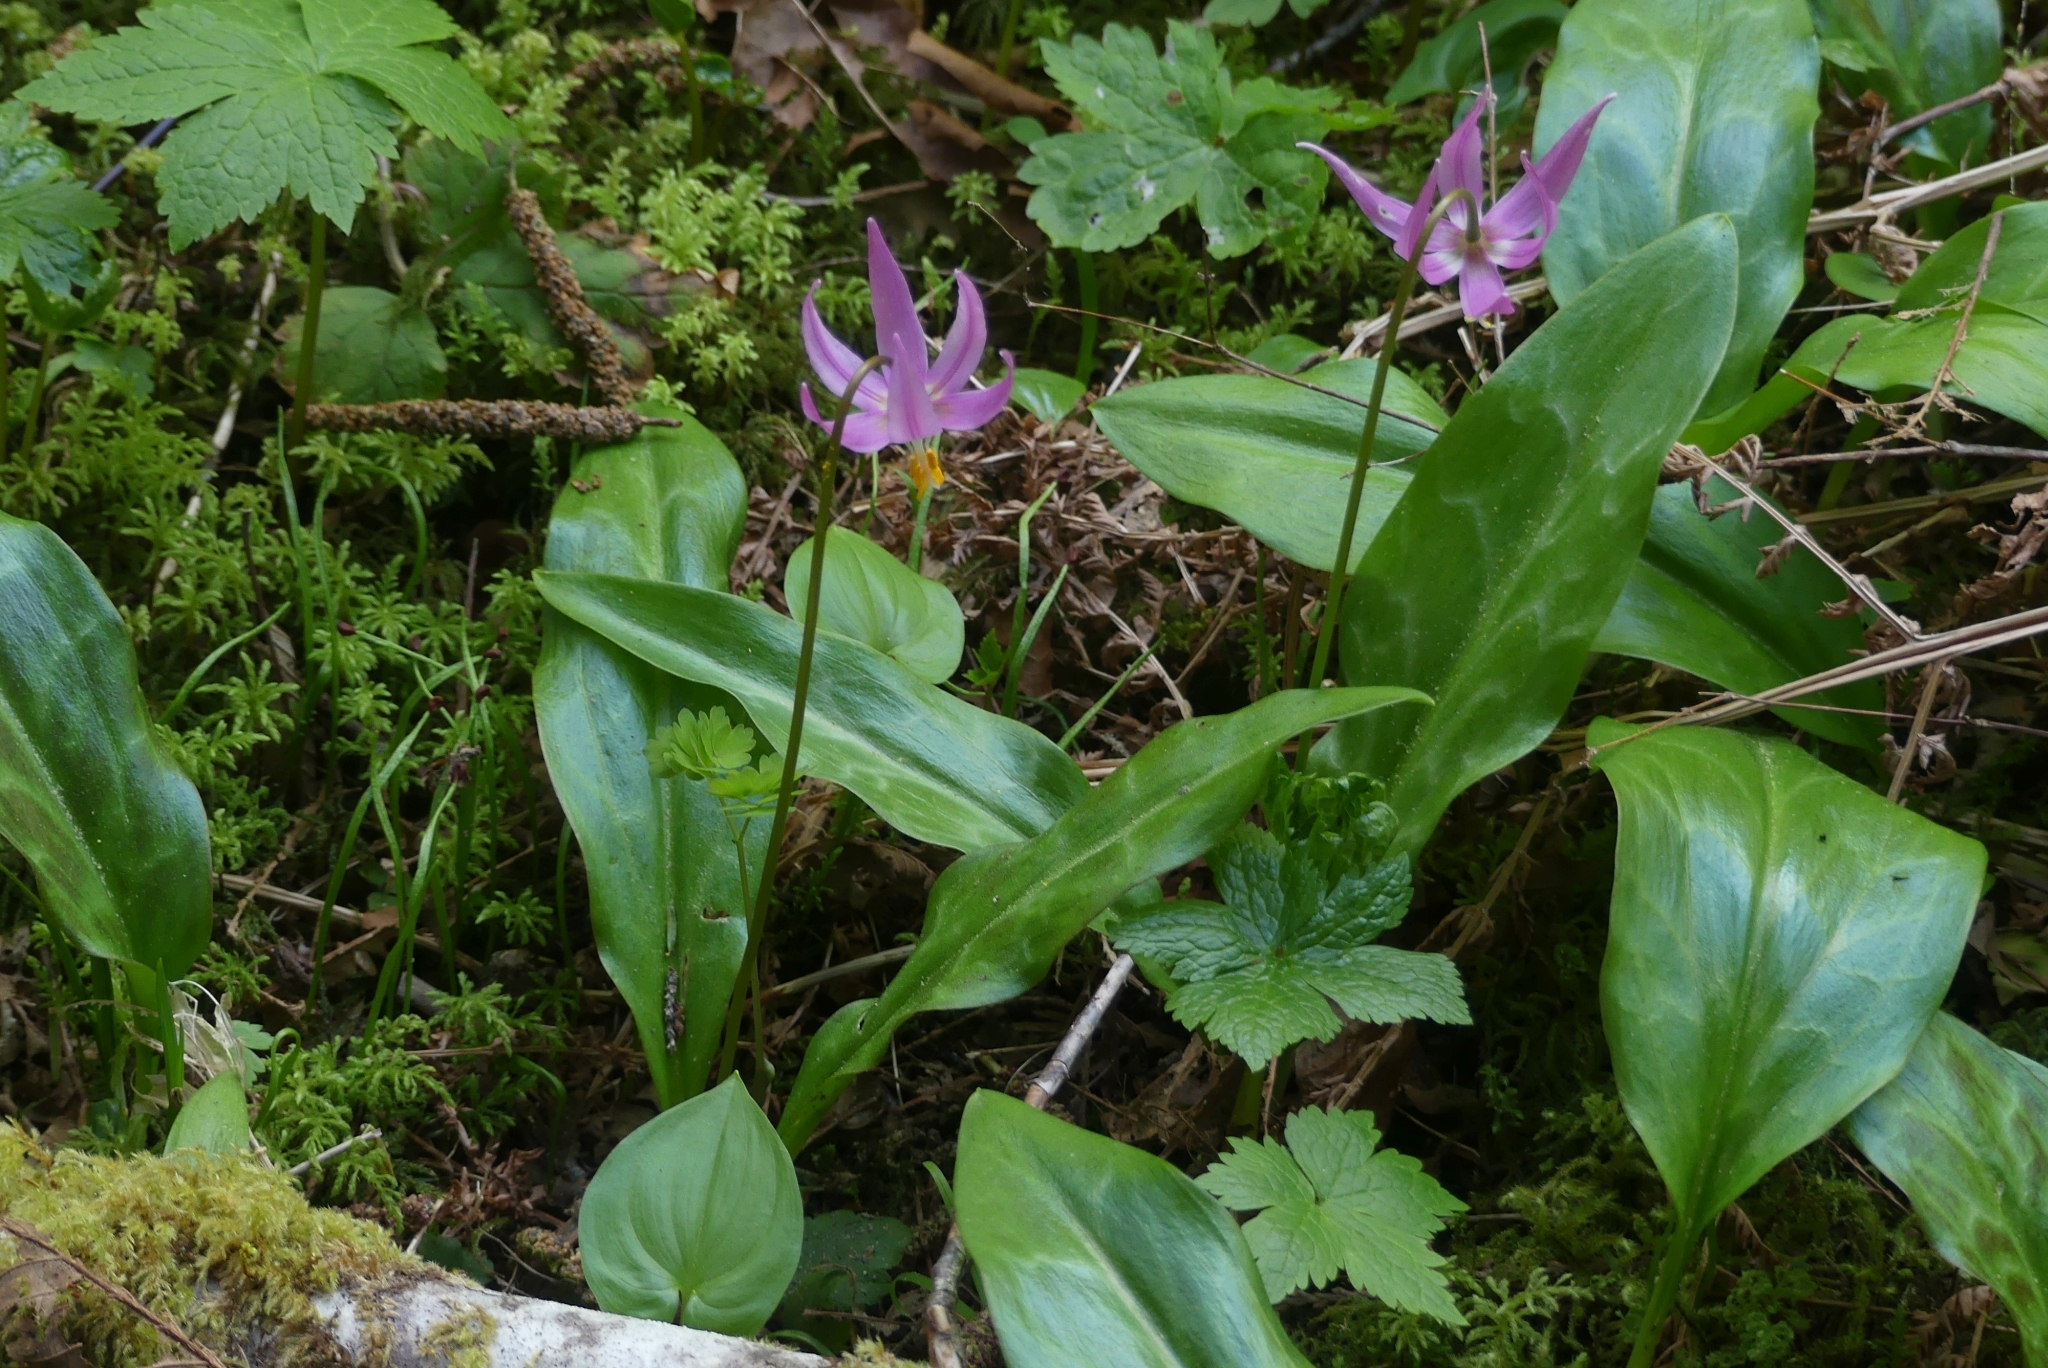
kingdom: Plantae
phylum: Tracheophyta
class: Liliopsida
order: Liliales
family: Liliaceae
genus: Erythronium
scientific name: Erythronium revolutum
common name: Pink fawn-lily
